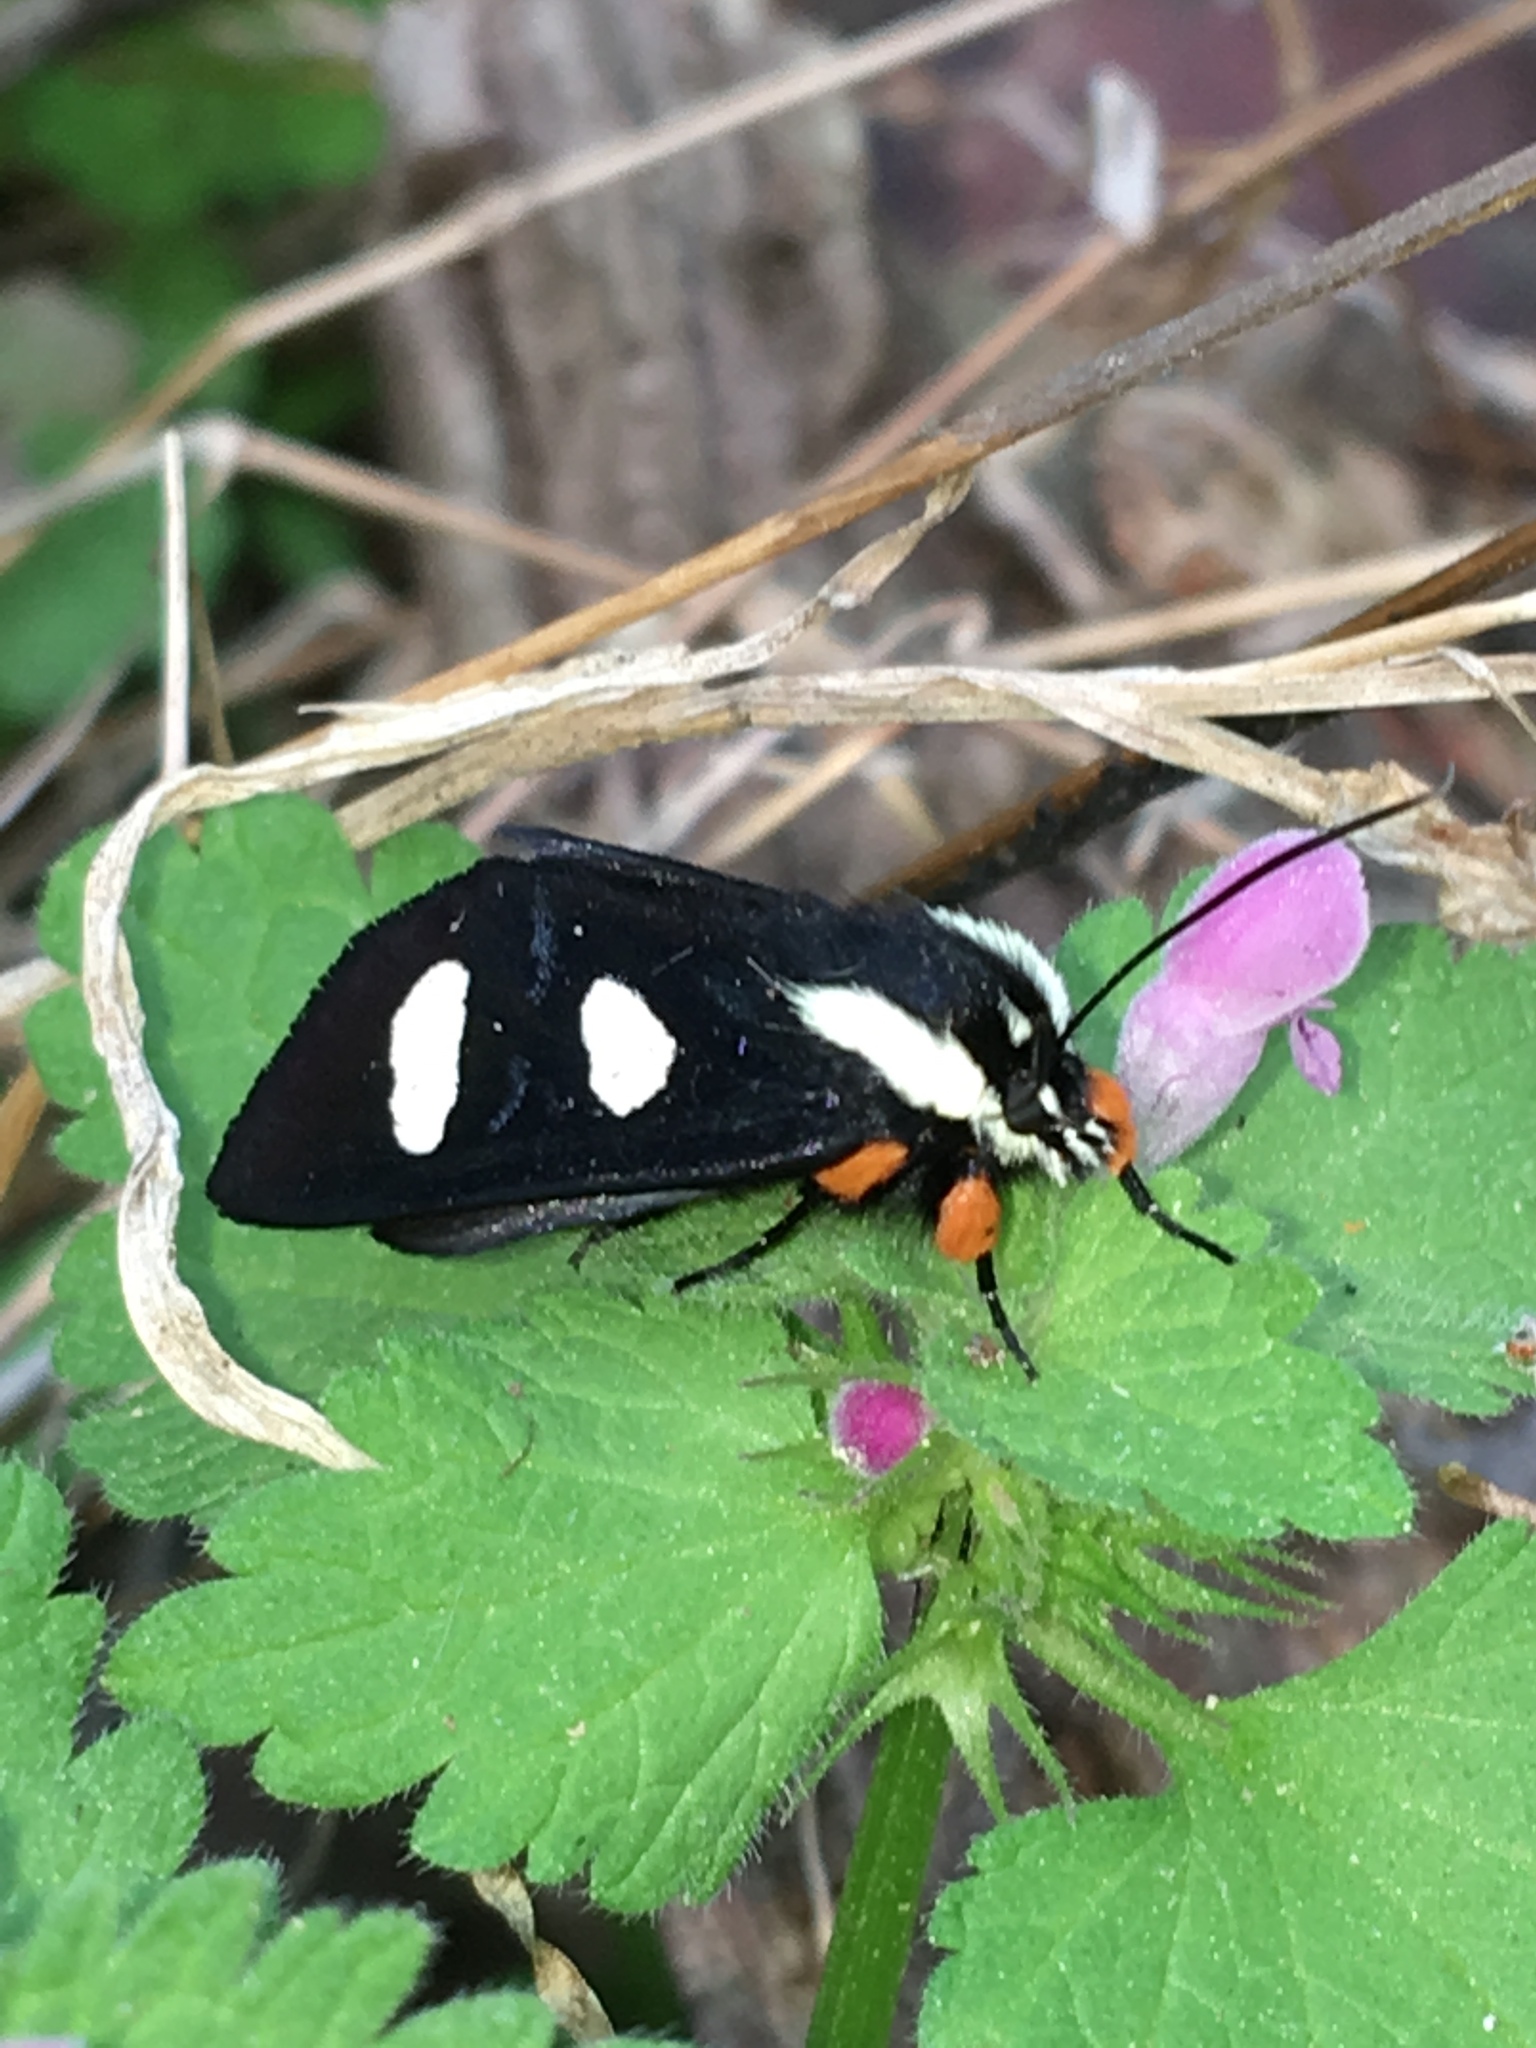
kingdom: Animalia
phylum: Arthropoda
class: Insecta
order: Lepidoptera
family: Noctuidae
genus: Alypia
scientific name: Alypia octomaculata
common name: Eight-spotted forester
